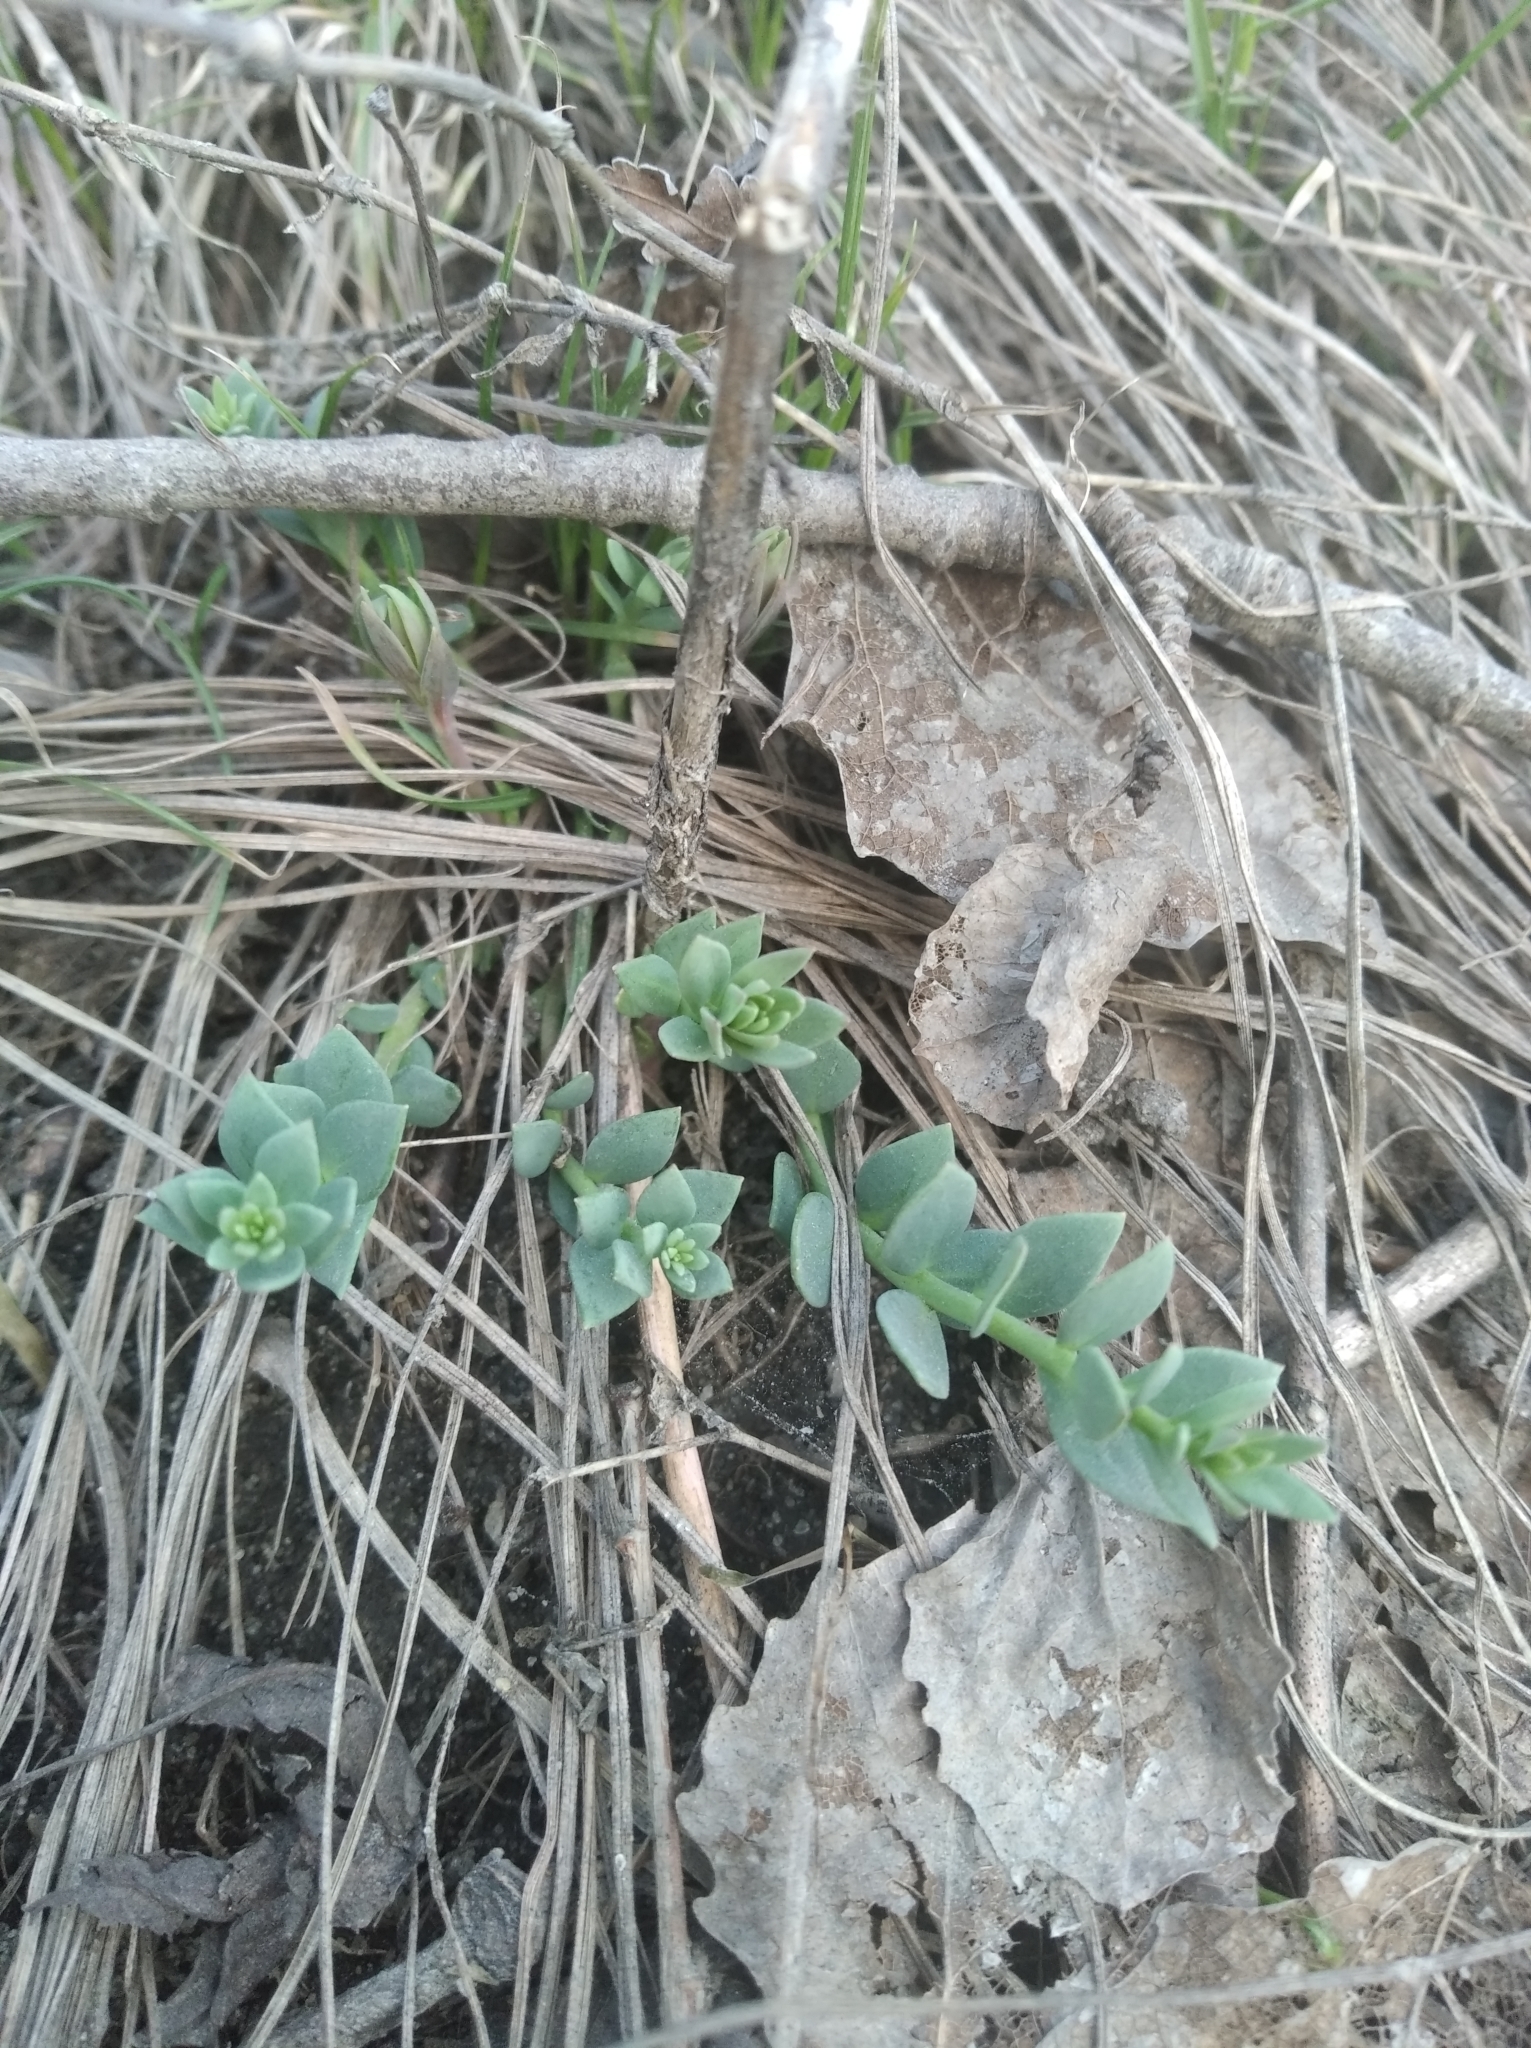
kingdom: Plantae
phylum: Tracheophyta
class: Magnoliopsida
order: Lamiales
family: Plantaginaceae
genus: Linaria
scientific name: Linaria genistifolia
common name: Broomleaf toadflax
